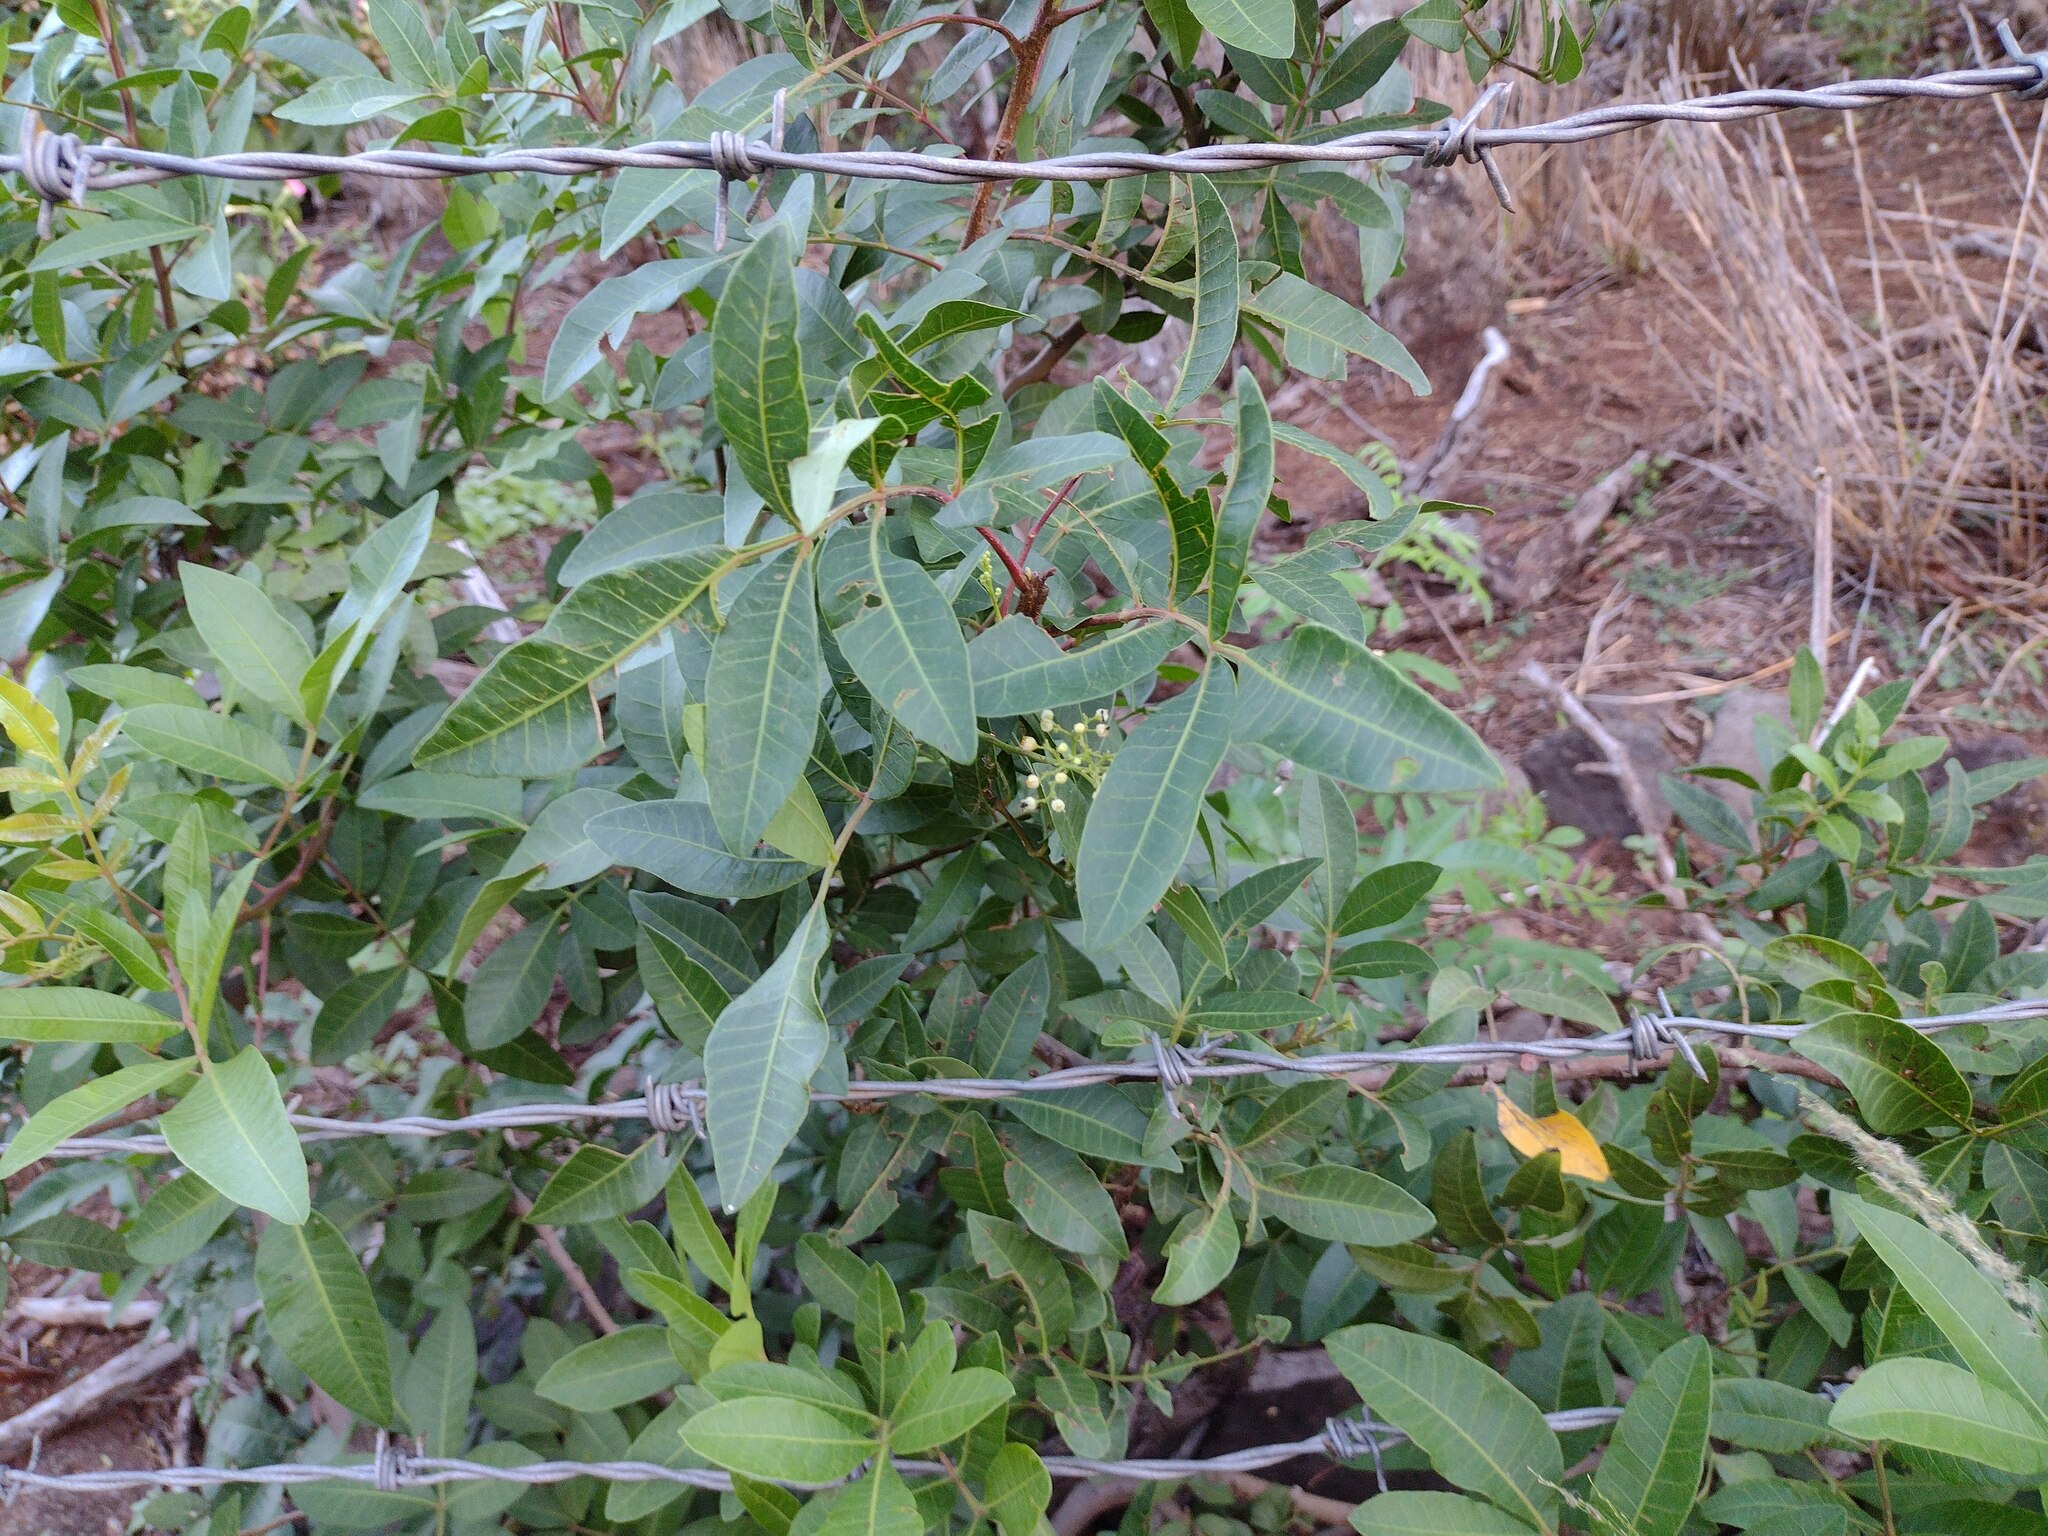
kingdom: Plantae
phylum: Tracheophyta
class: Magnoliopsida
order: Sapindales
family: Anacardiaceae
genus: Schinus
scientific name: Schinus terebinthifolia
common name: Brazilian peppertree
